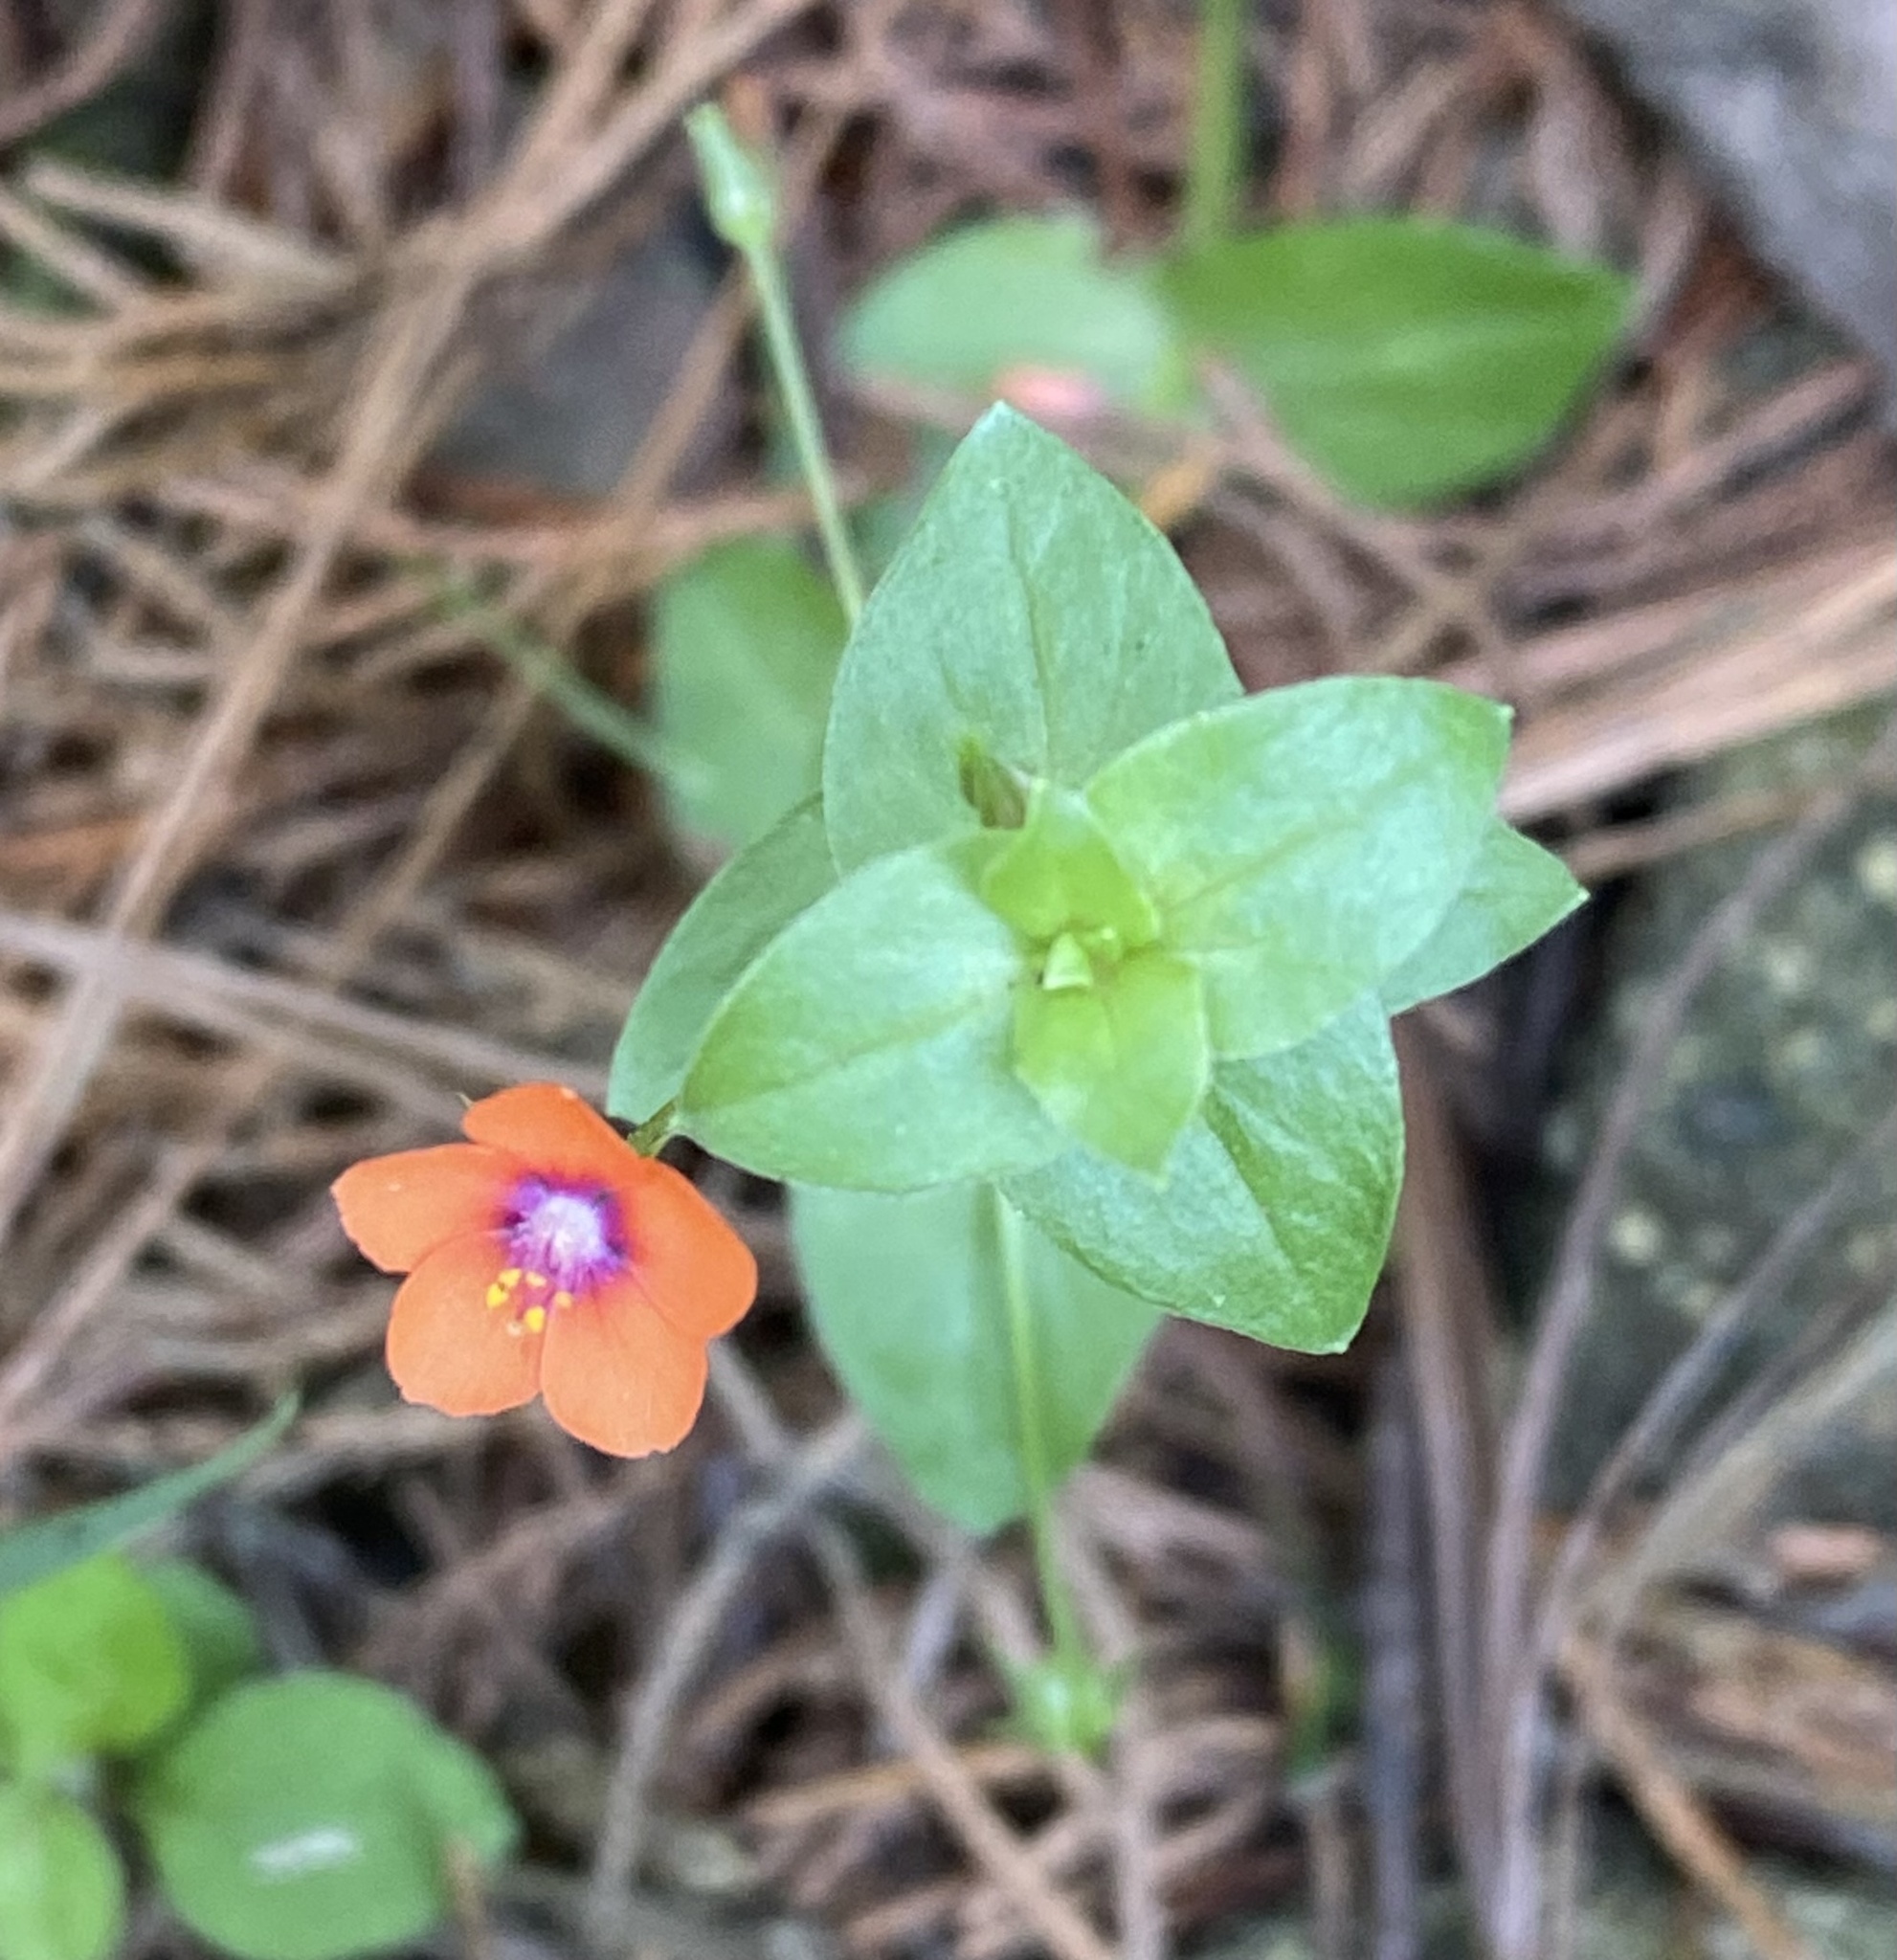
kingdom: Plantae
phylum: Tracheophyta
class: Magnoliopsida
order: Ericales
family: Primulaceae
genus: Lysimachia
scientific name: Lysimachia arvensis
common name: Scarlet pimpernel
